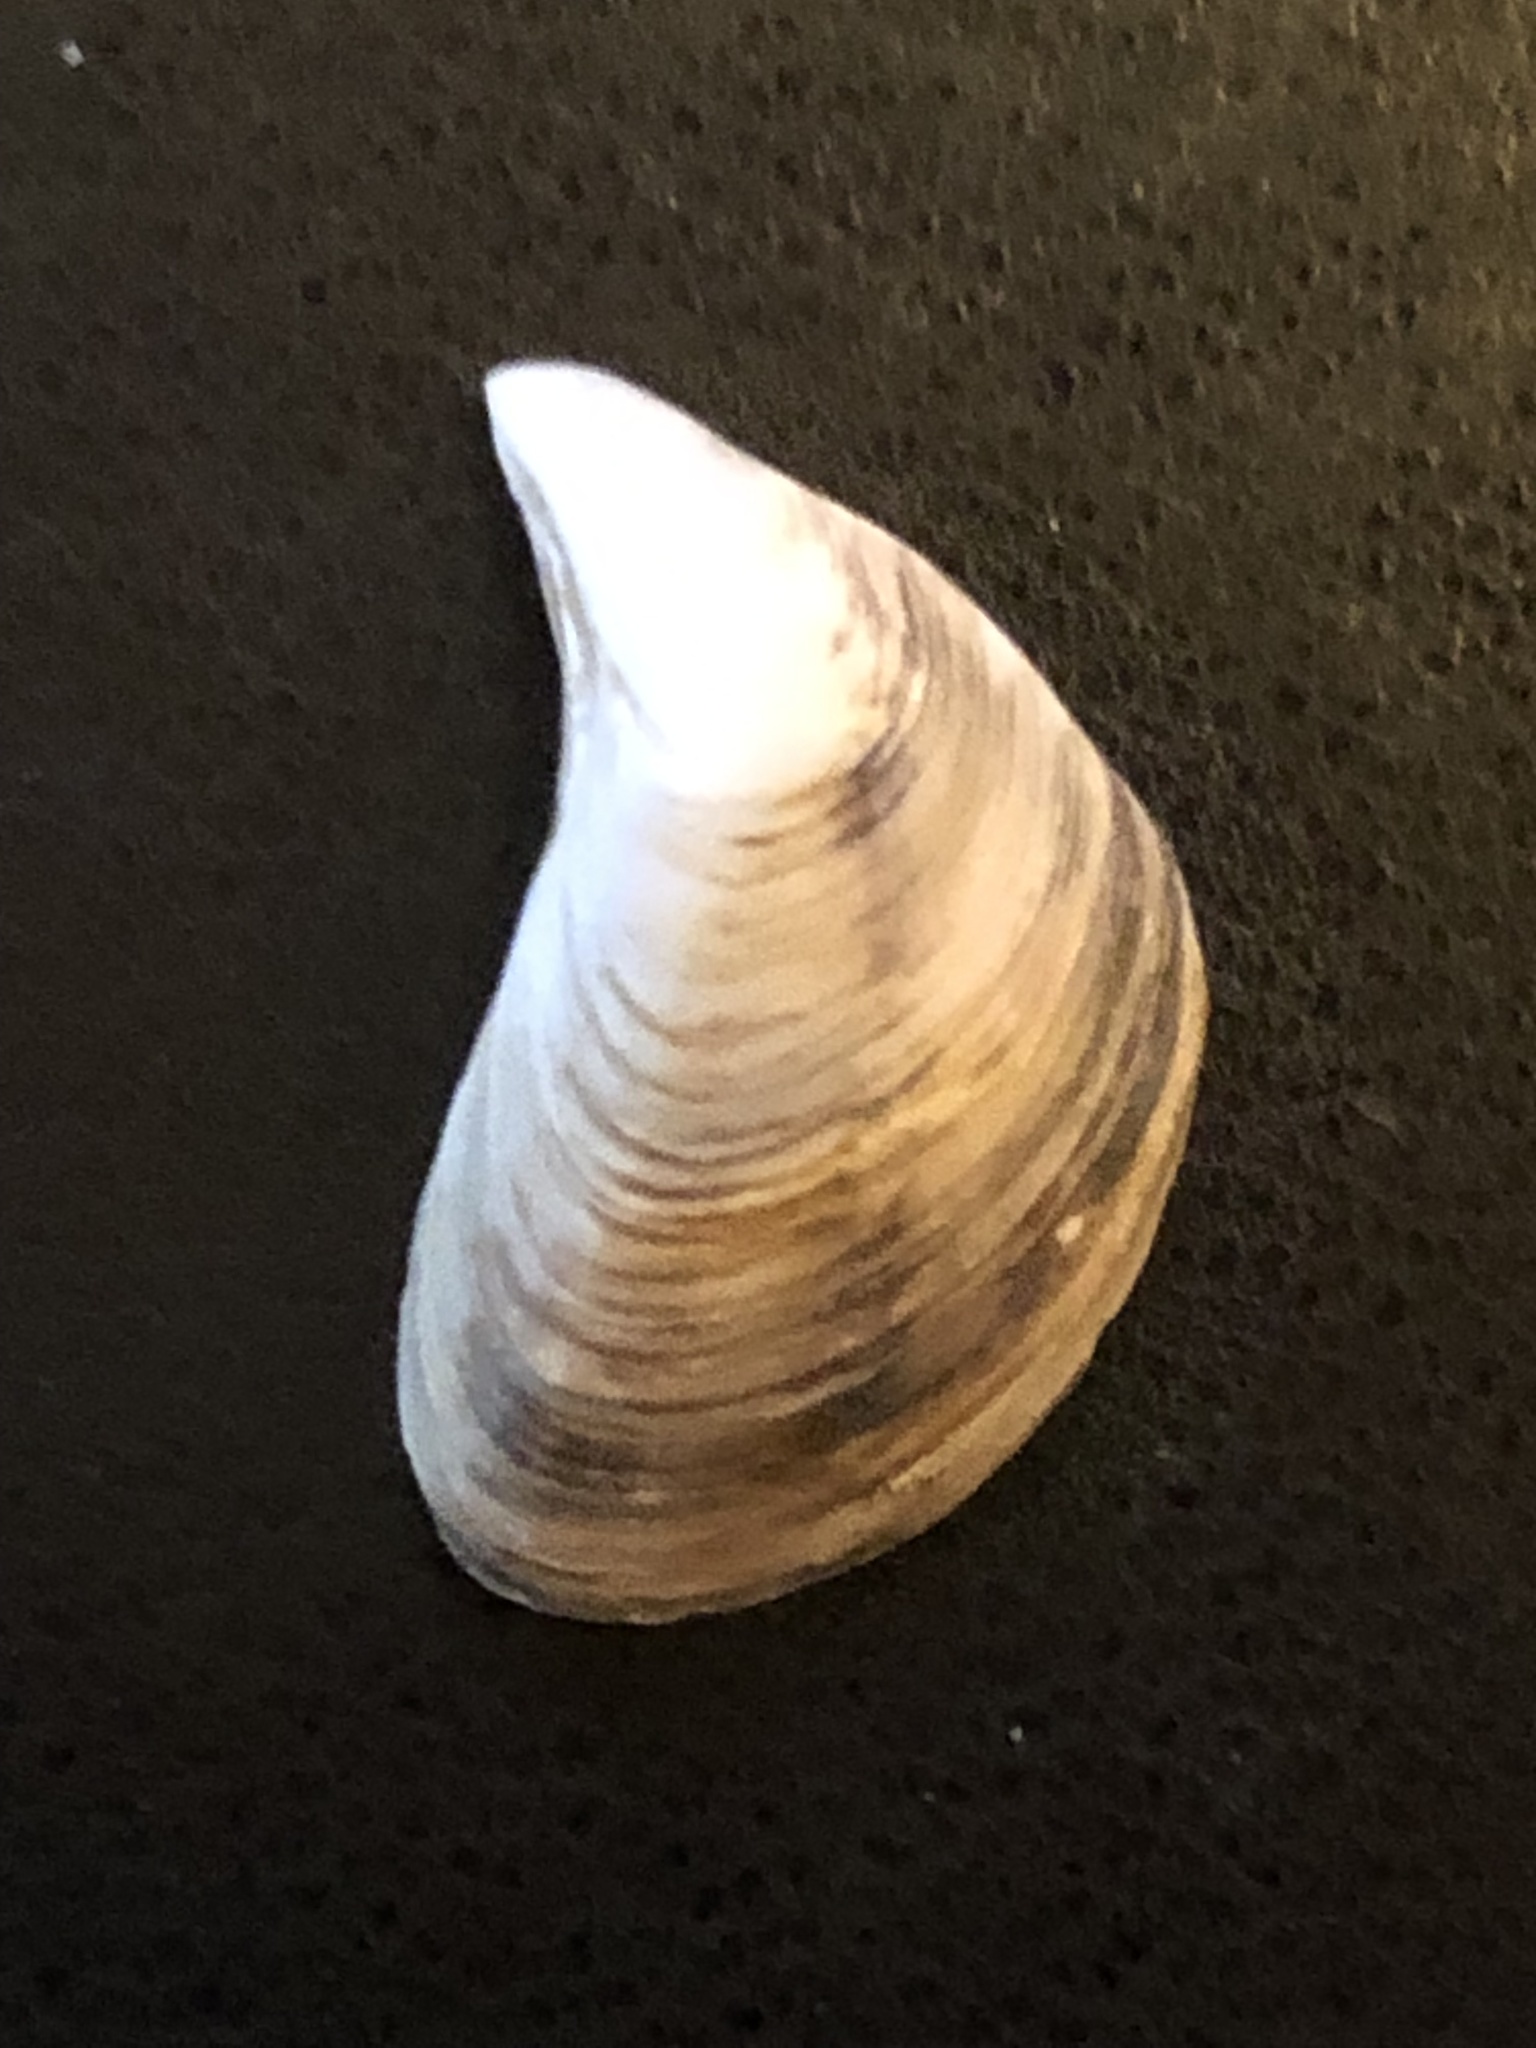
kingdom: Animalia
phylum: Mollusca
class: Bivalvia
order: Myida
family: Dreissenidae
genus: Dreissena
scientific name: Dreissena bugensis
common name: Quagga mussel
